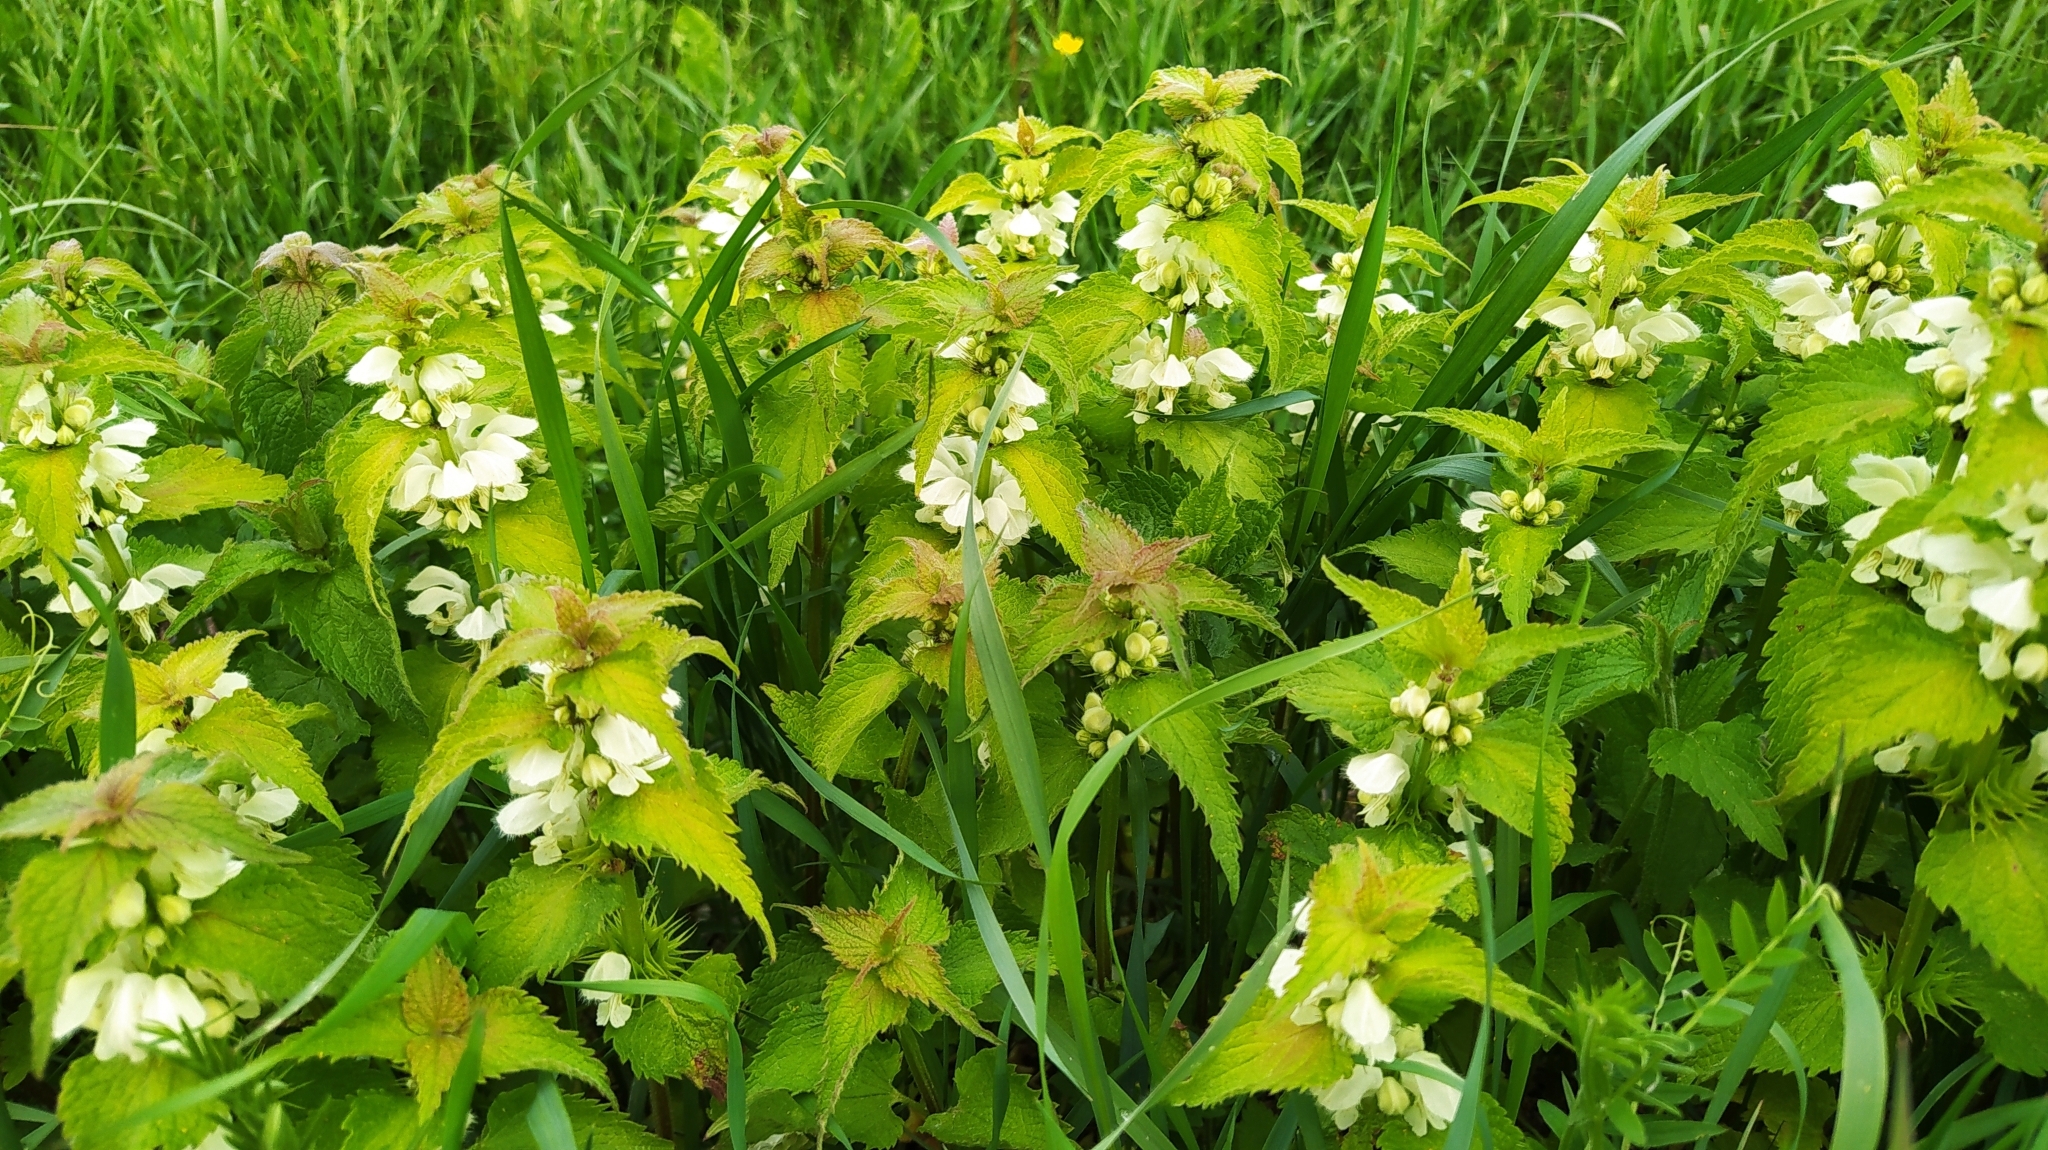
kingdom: Plantae
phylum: Tracheophyta
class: Magnoliopsida
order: Lamiales
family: Lamiaceae
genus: Lamium
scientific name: Lamium album
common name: White dead-nettle
